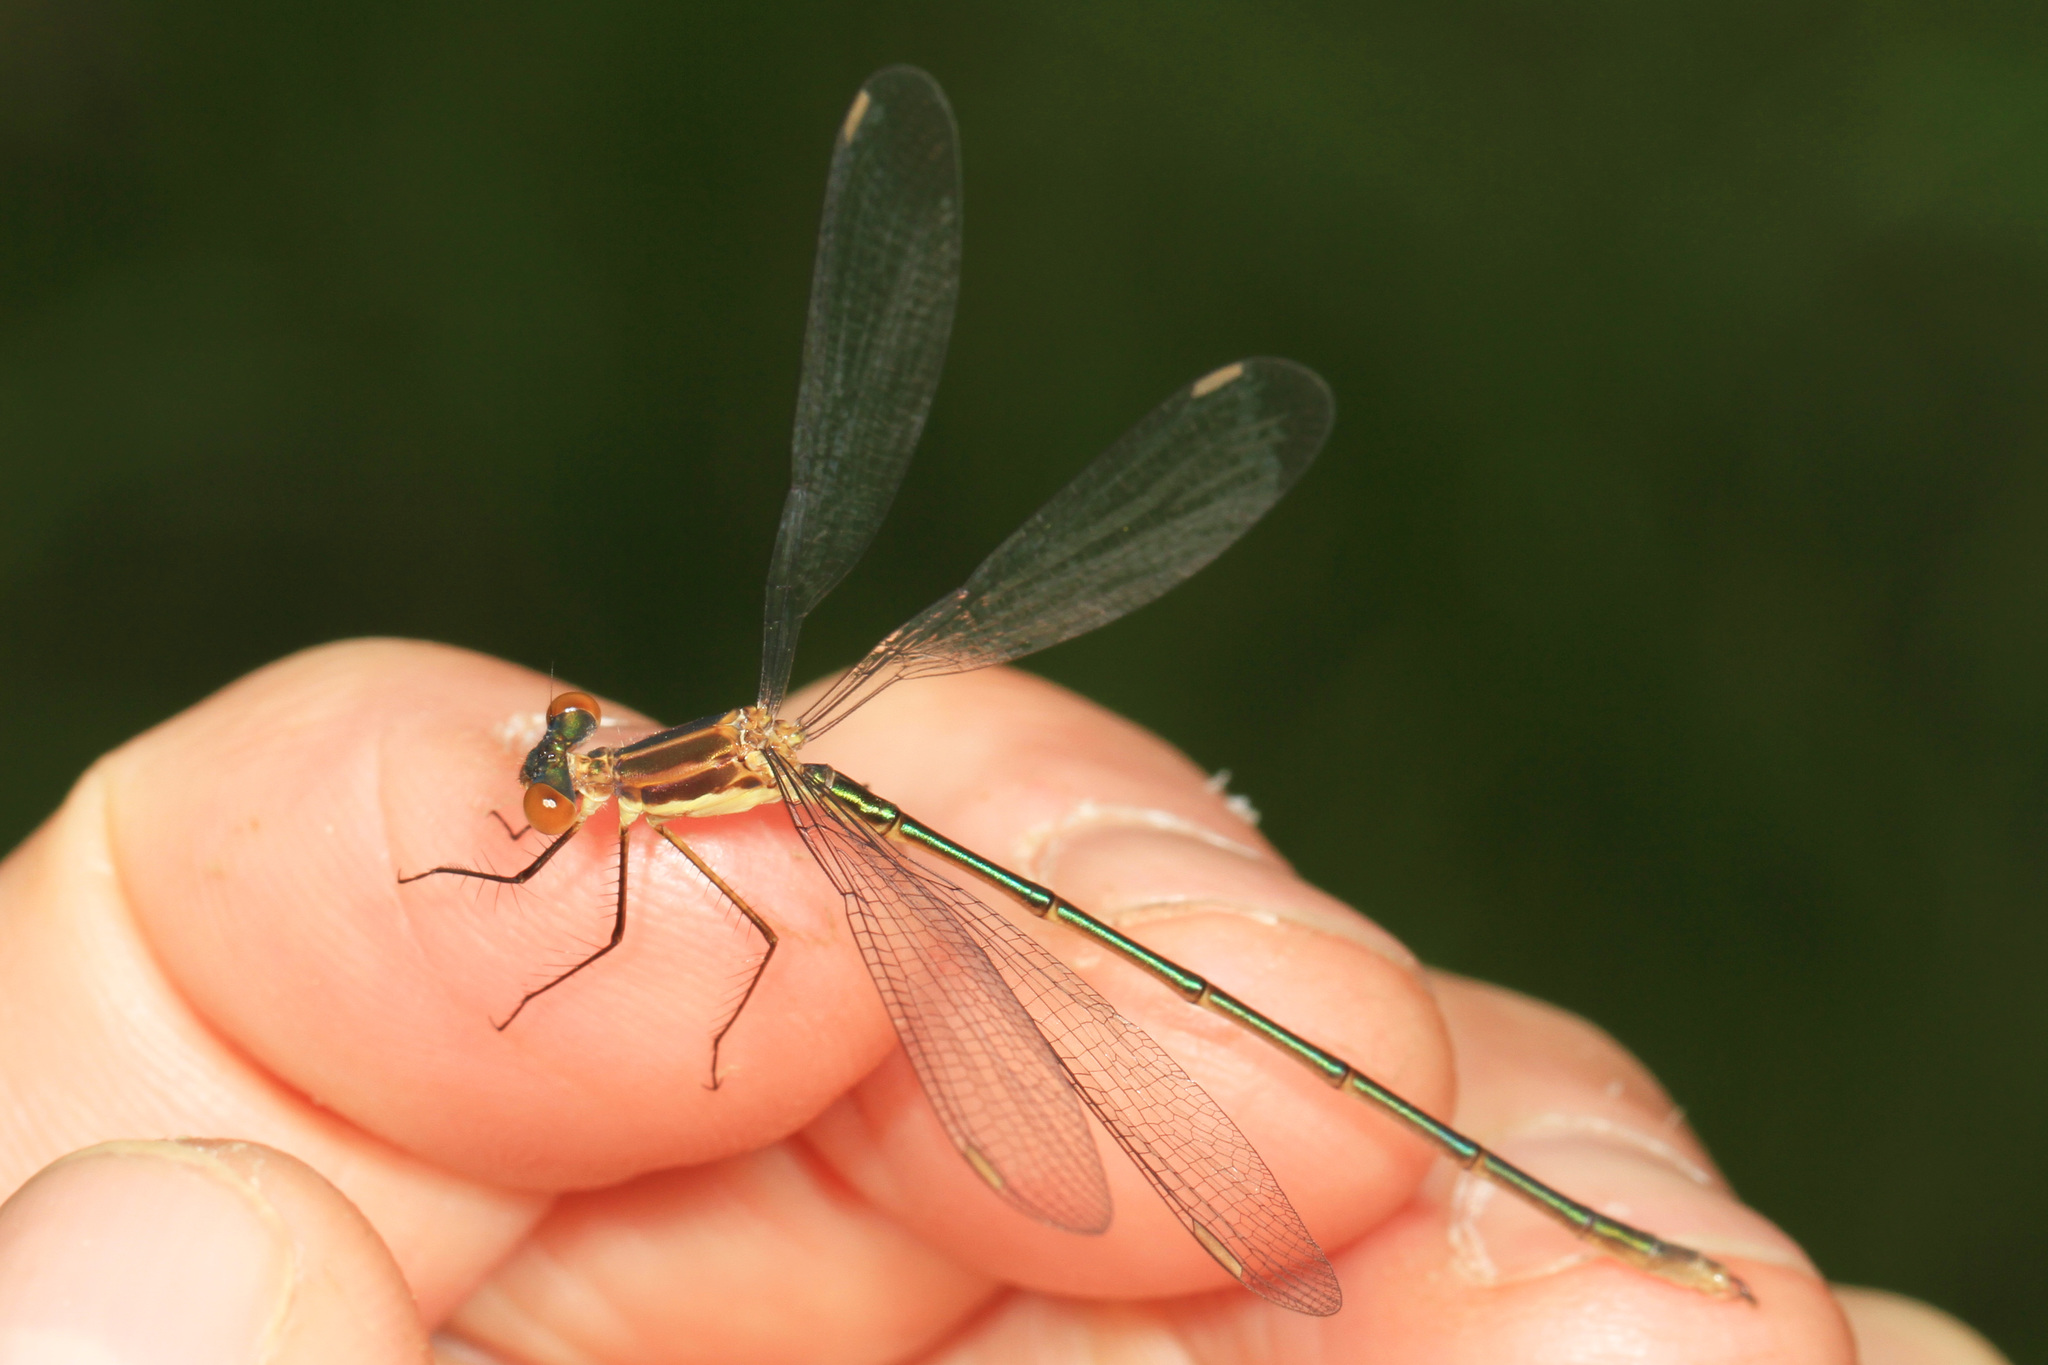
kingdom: Animalia
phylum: Arthropoda
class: Insecta
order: Odonata
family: Lestidae
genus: Lestes
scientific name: Lestes vigilax
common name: Swamp spreadwing
